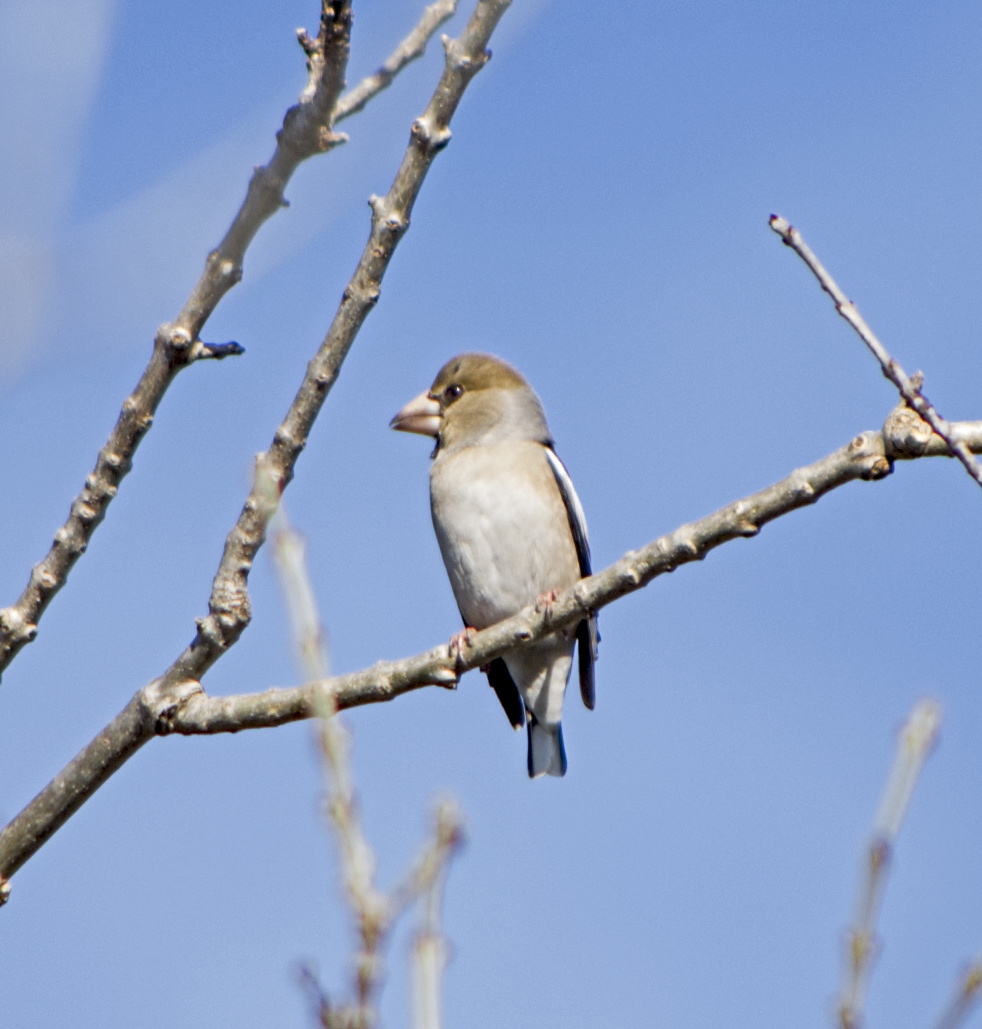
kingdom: Animalia
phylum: Chordata
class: Aves
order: Passeriformes
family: Fringillidae
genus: Coccothraustes
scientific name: Coccothraustes coccothraustes
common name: Hawfinch
